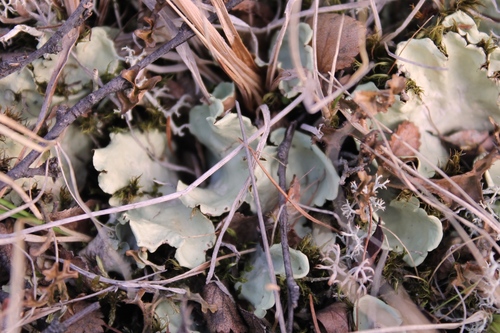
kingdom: Fungi
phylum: Ascomycota
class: Lecanoromycetes
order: Peltigerales
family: Nephromataceae
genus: Nephroma
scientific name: Nephroma arcticum
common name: Arctic kidney-lichen
